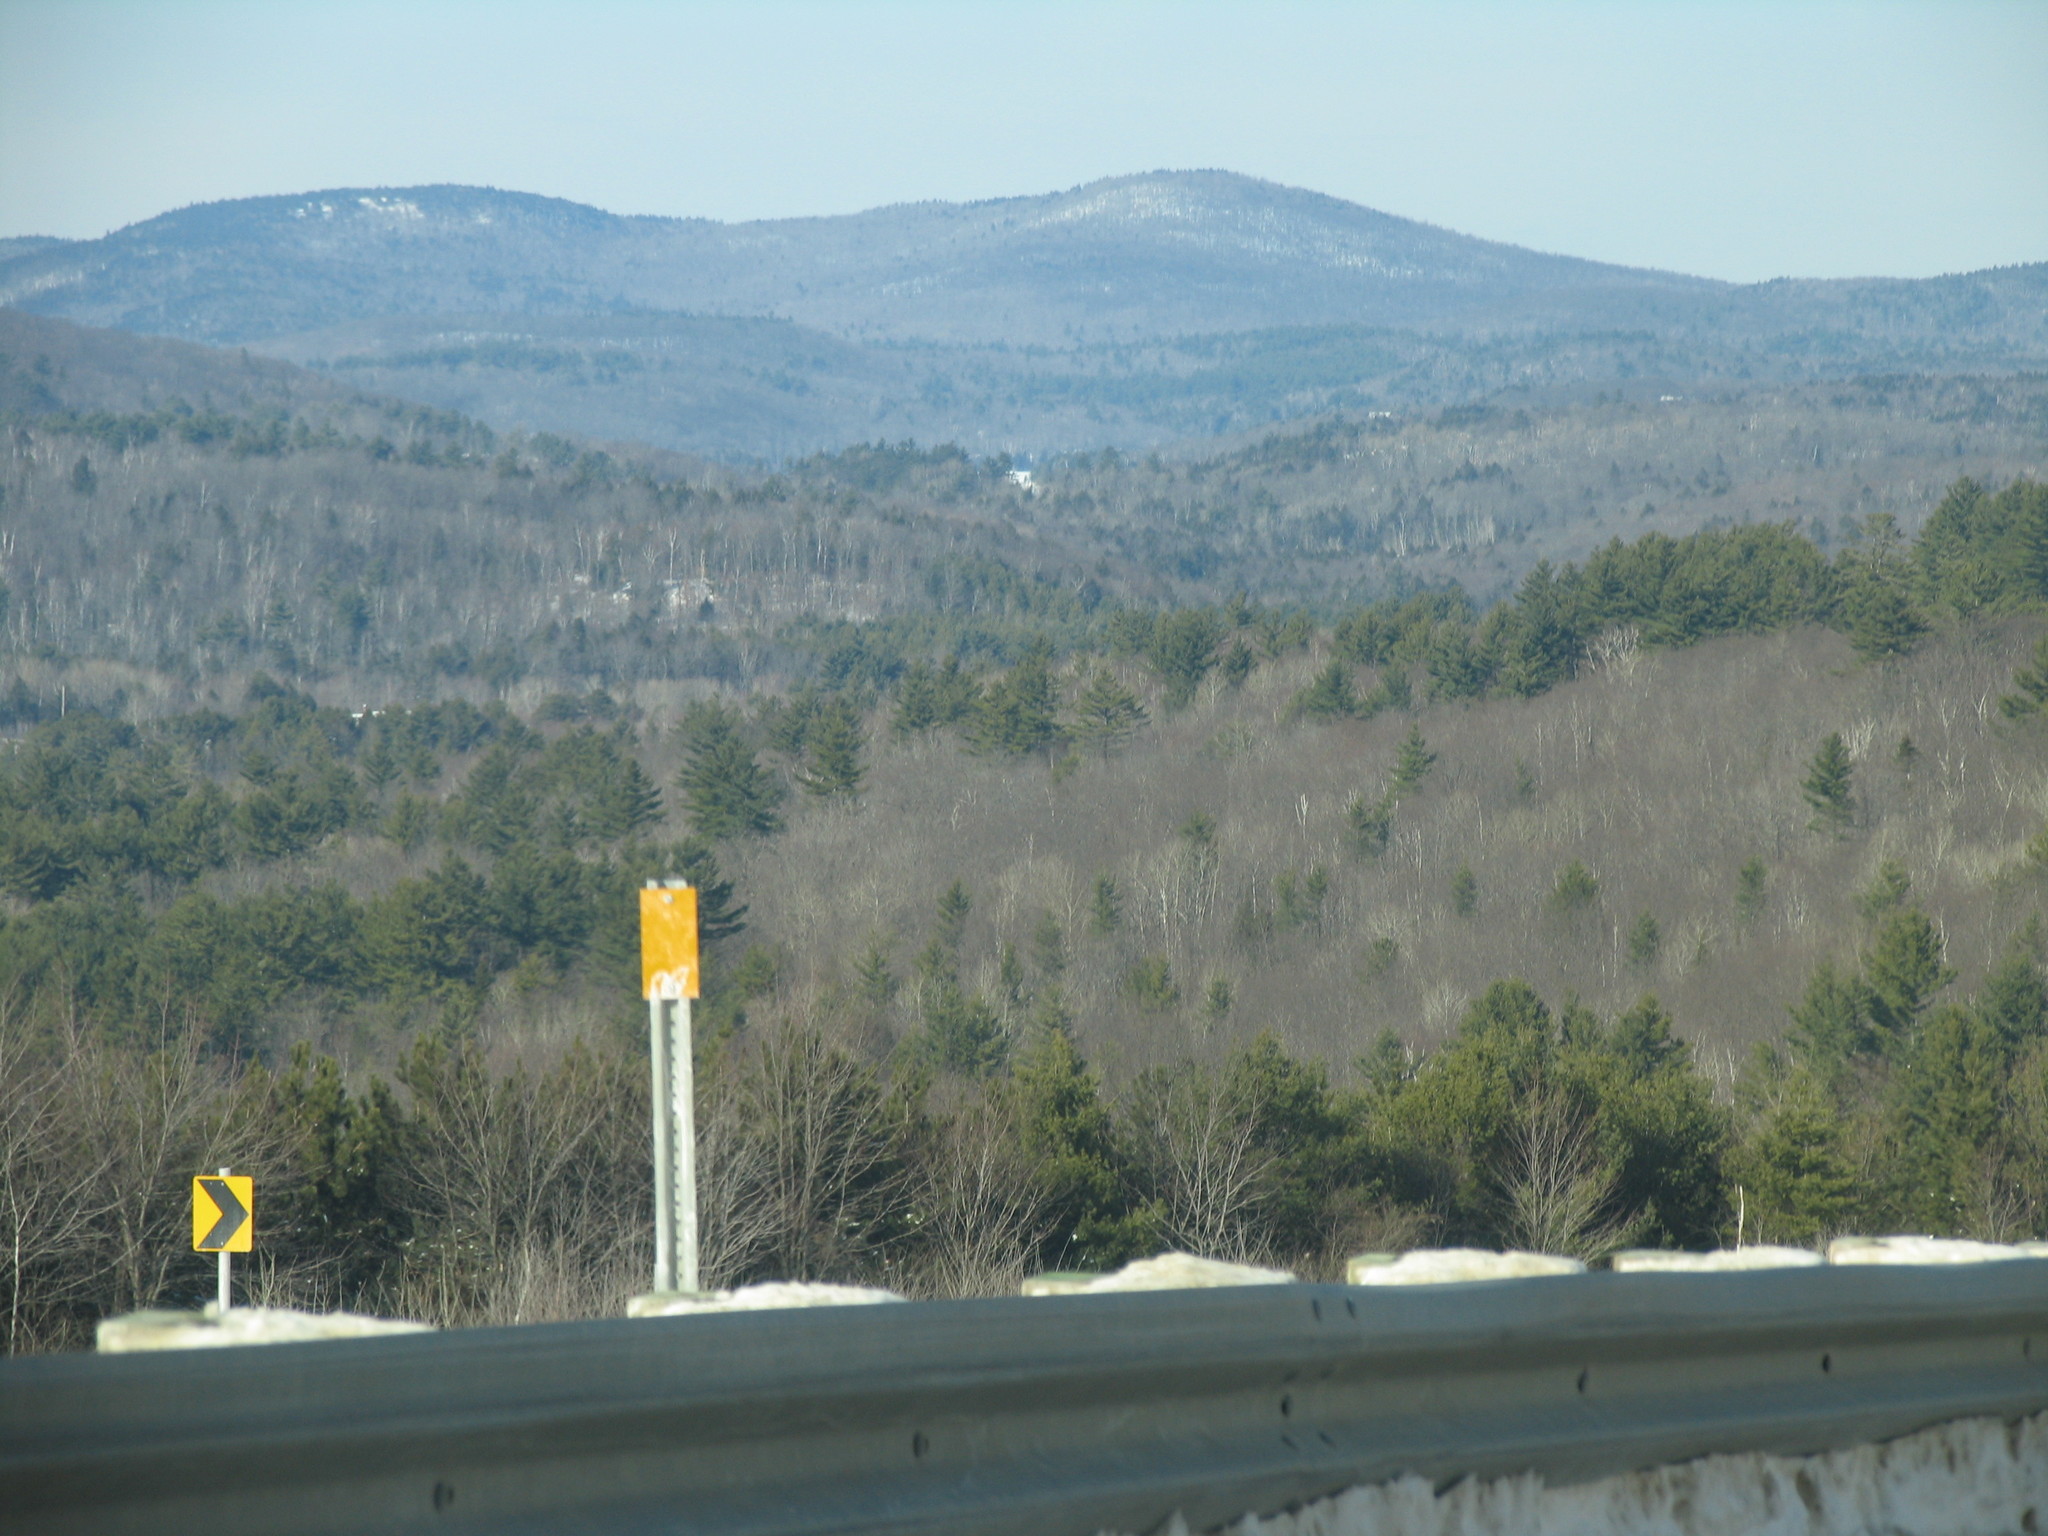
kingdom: Plantae
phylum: Tracheophyta
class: Pinopsida
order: Pinales
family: Pinaceae
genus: Pinus
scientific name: Pinus strobus
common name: Weymouth pine
